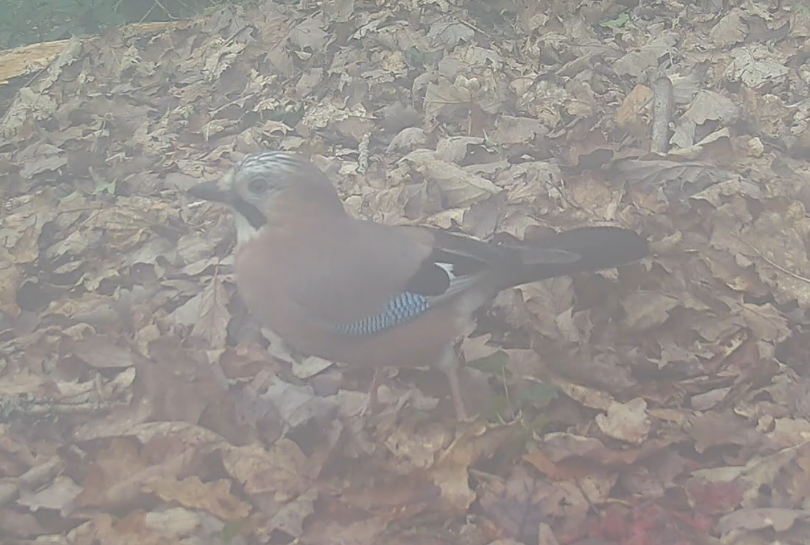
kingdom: Animalia
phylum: Chordata
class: Aves
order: Passeriformes
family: Corvidae
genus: Garrulus
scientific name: Garrulus glandarius
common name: Eurasian jay
